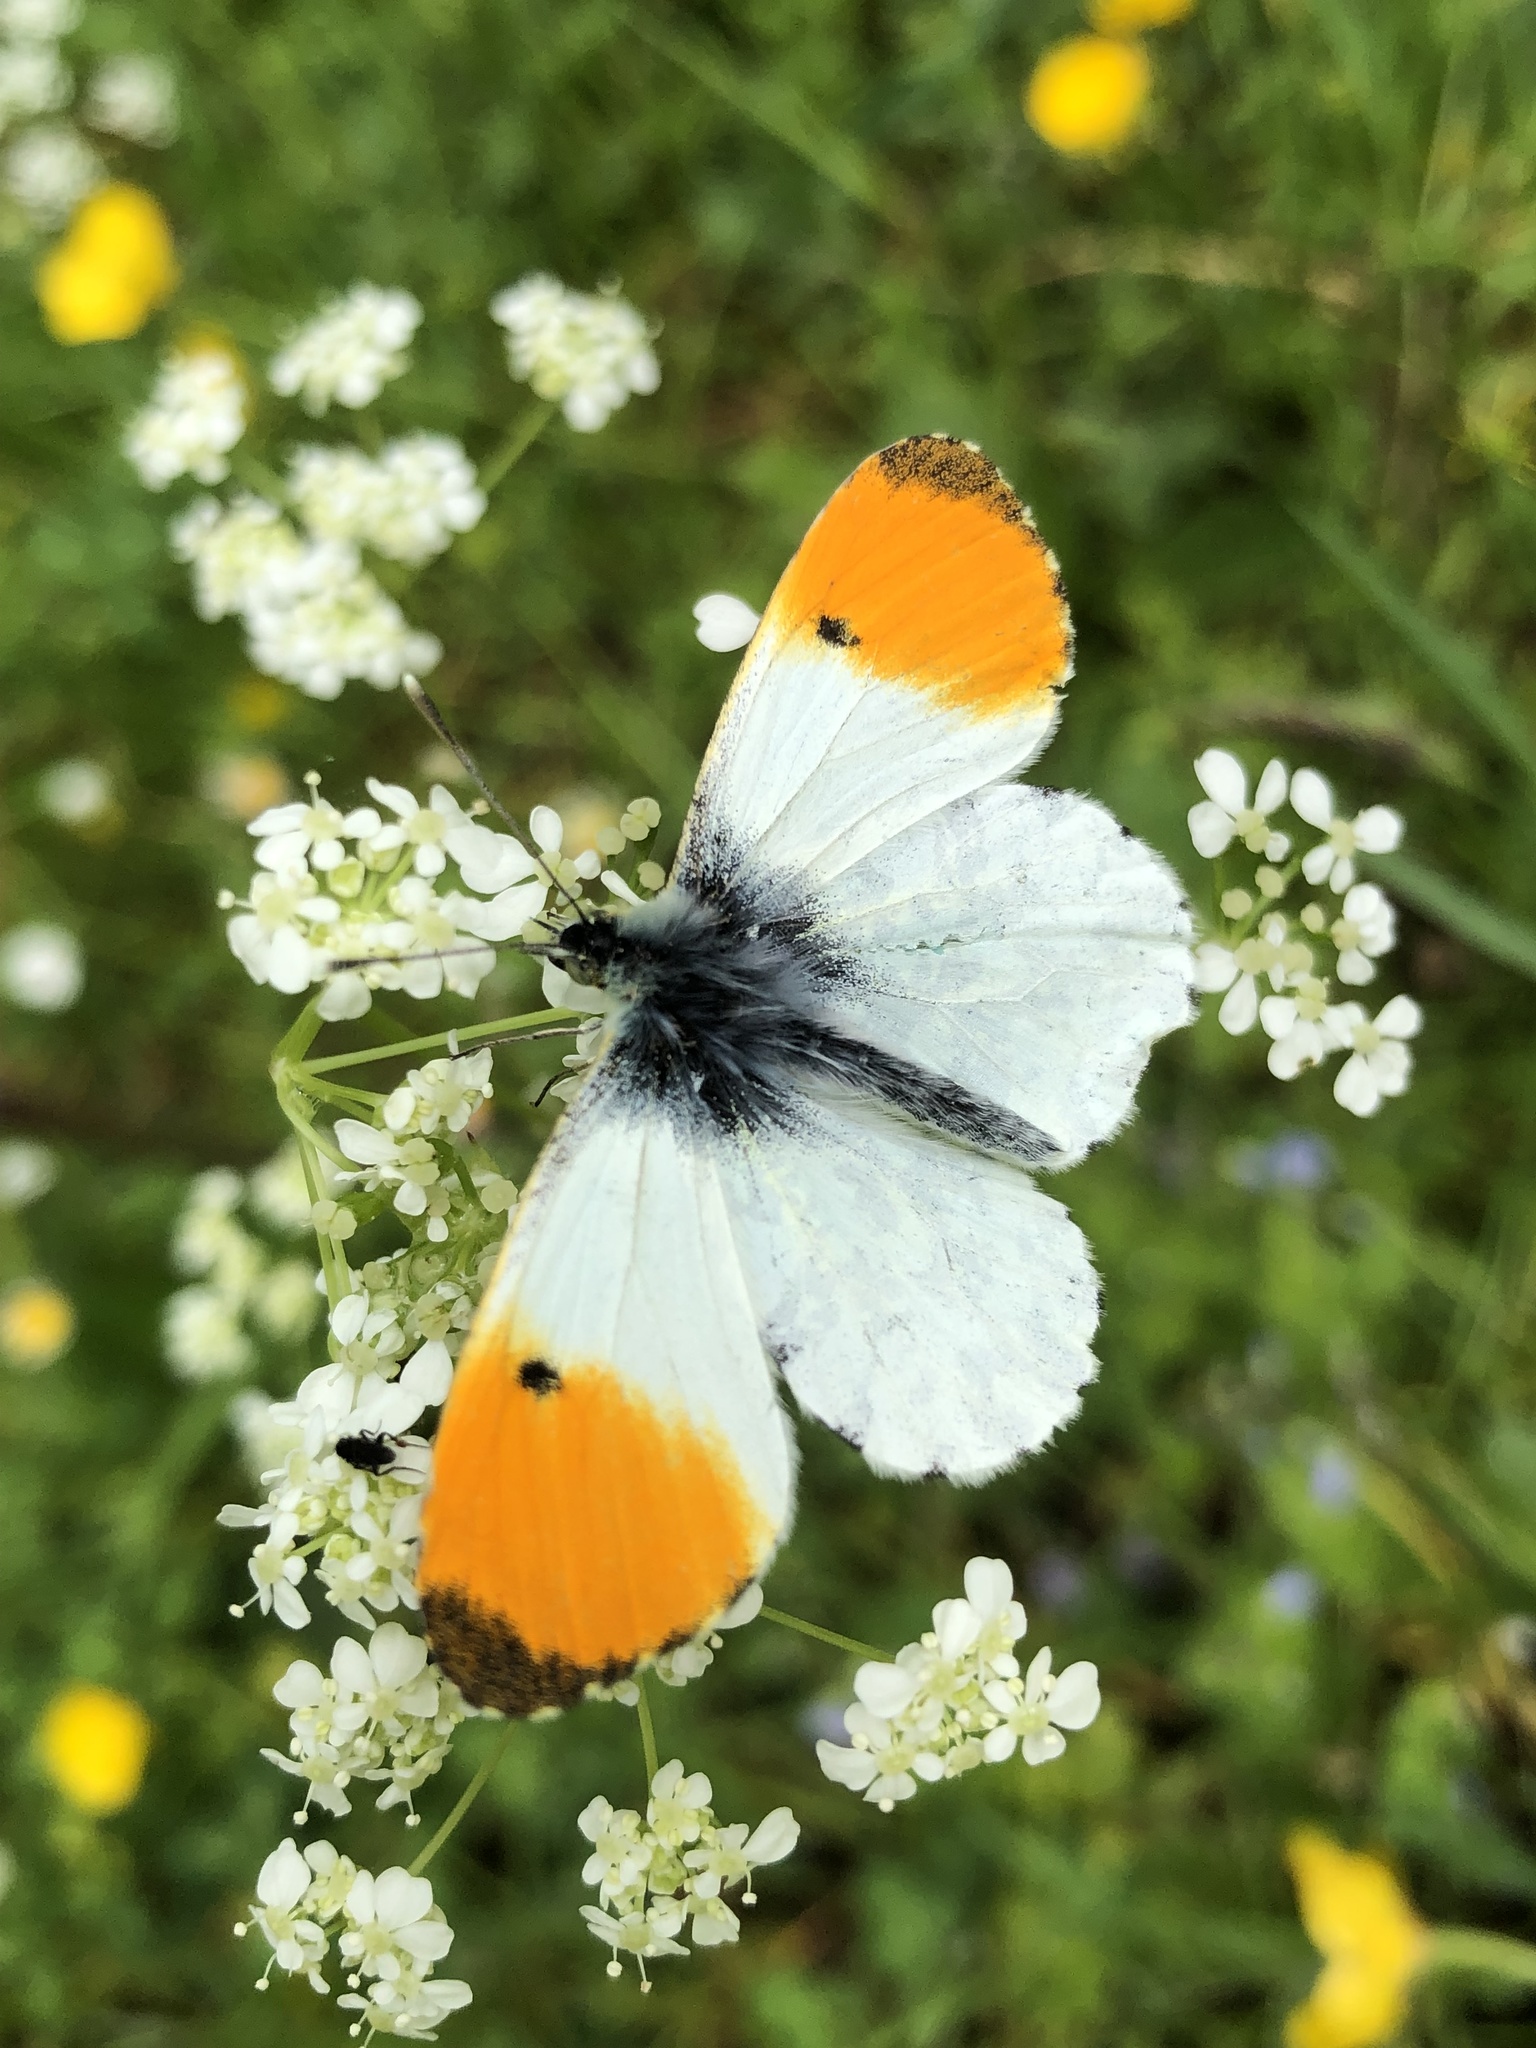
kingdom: Animalia
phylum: Arthropoda
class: Insecta
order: Lepidoptera
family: Pieridae
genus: Anthocharis
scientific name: Anthocharis cardamines
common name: Orange-tip
